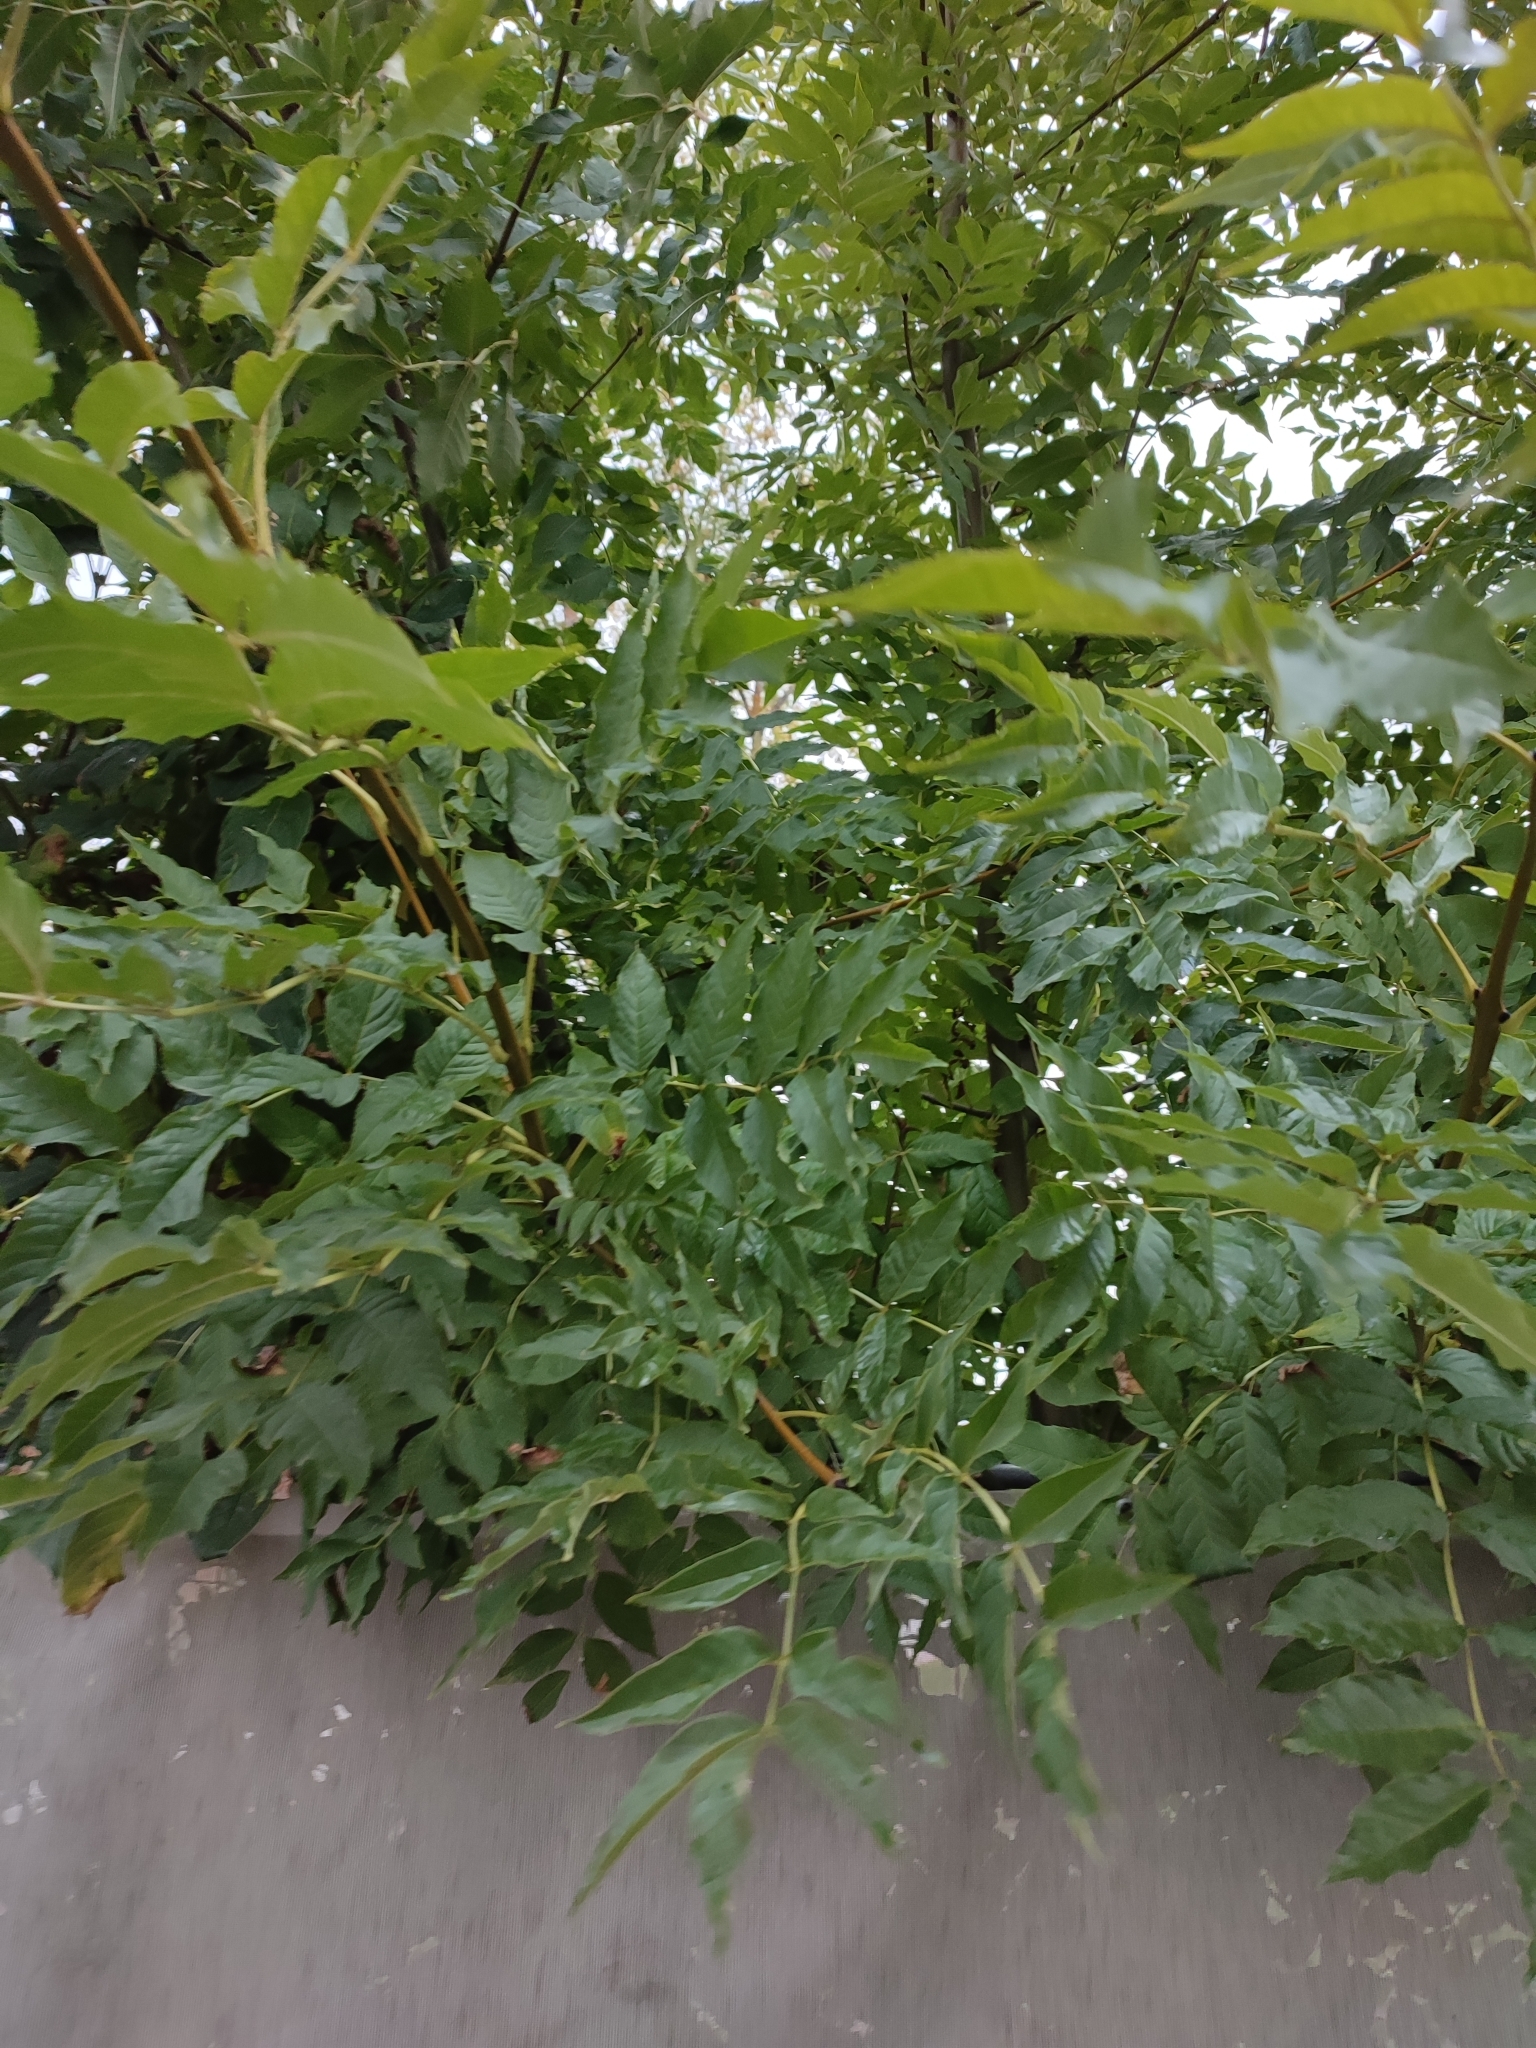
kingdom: Plantae
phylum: Tracheophyta
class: Magnoliopsida
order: Lamiales
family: Oleaceae
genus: Fraxinus
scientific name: Fraxinus excelsior
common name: European ash
